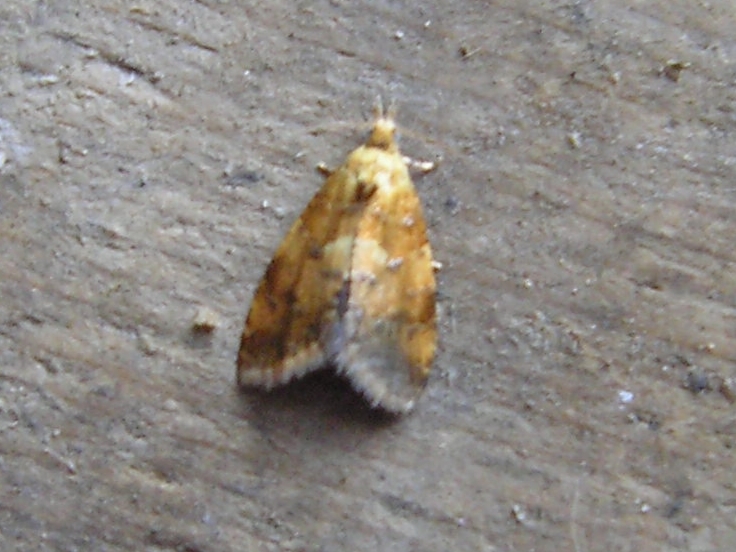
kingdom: Animalia
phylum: Arthropoda
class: Insecta
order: Lepidoptera
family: Tortricidae
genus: Pseudargyrotoza
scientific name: Pseudargyrotoza conwagana
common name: Yellow-spot twist
